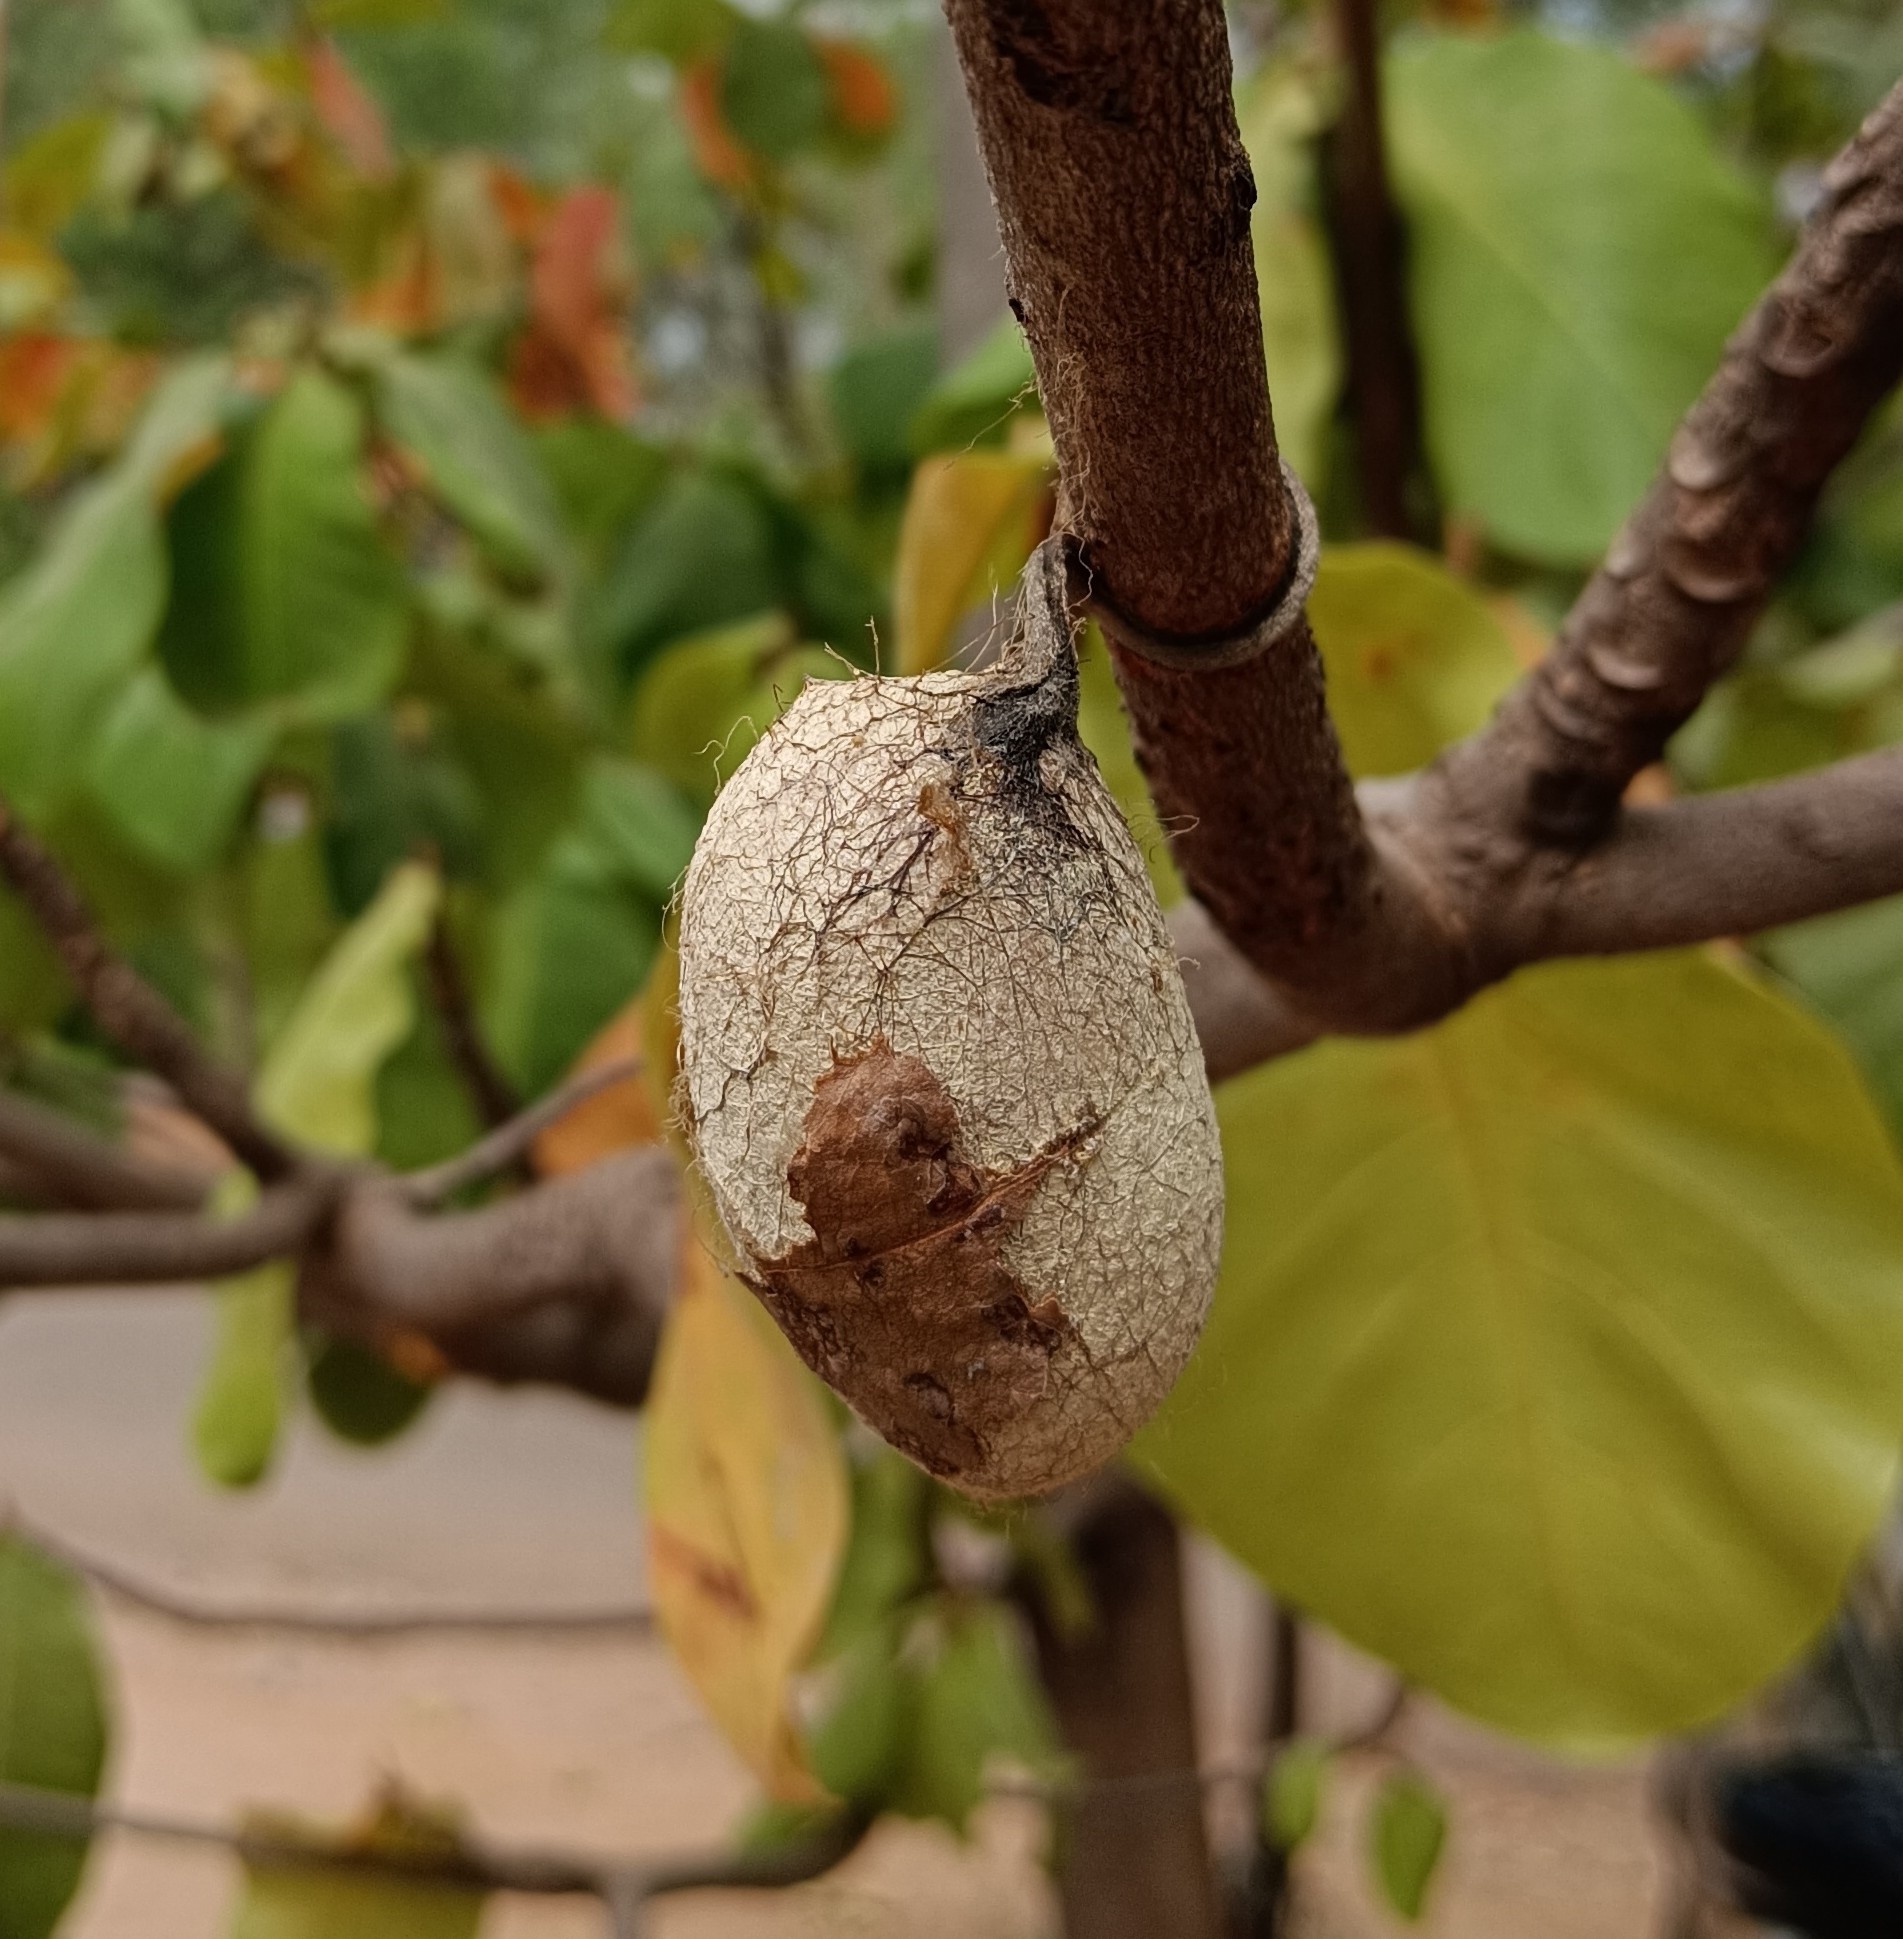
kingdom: Animalia
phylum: Arthropoda
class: Insecta
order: Lepidoptera
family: Saturniidae
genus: Antheraea
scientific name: Antheraea paphia
